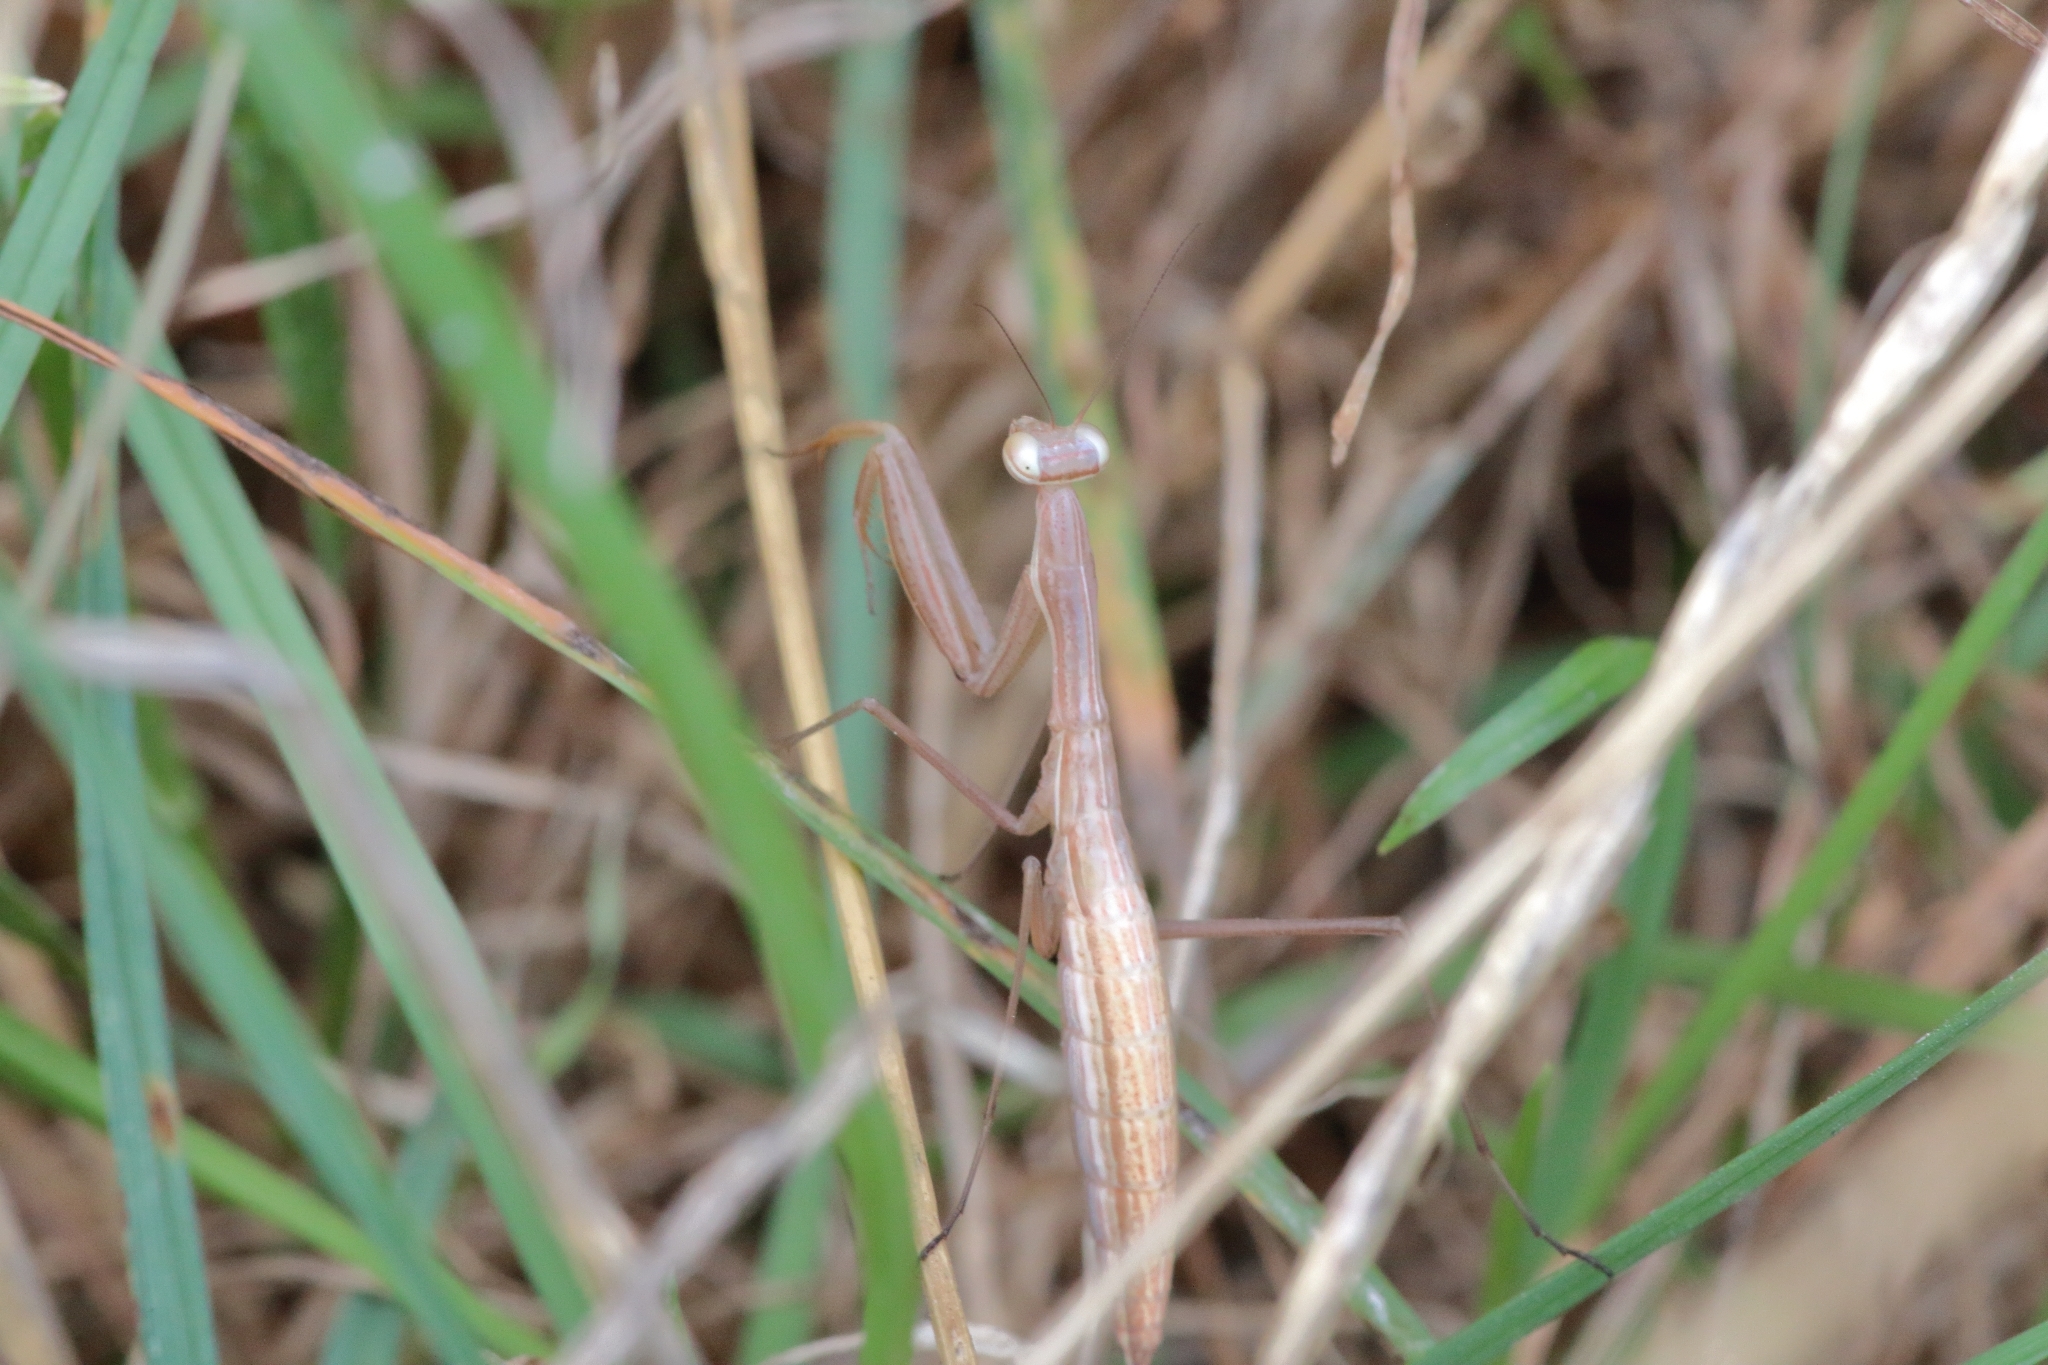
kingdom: Animalia
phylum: Arthropoda
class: Insecta
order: Mantodea
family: Mantidae
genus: Mantis
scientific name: Mantis religiosa
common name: Praying mantis
